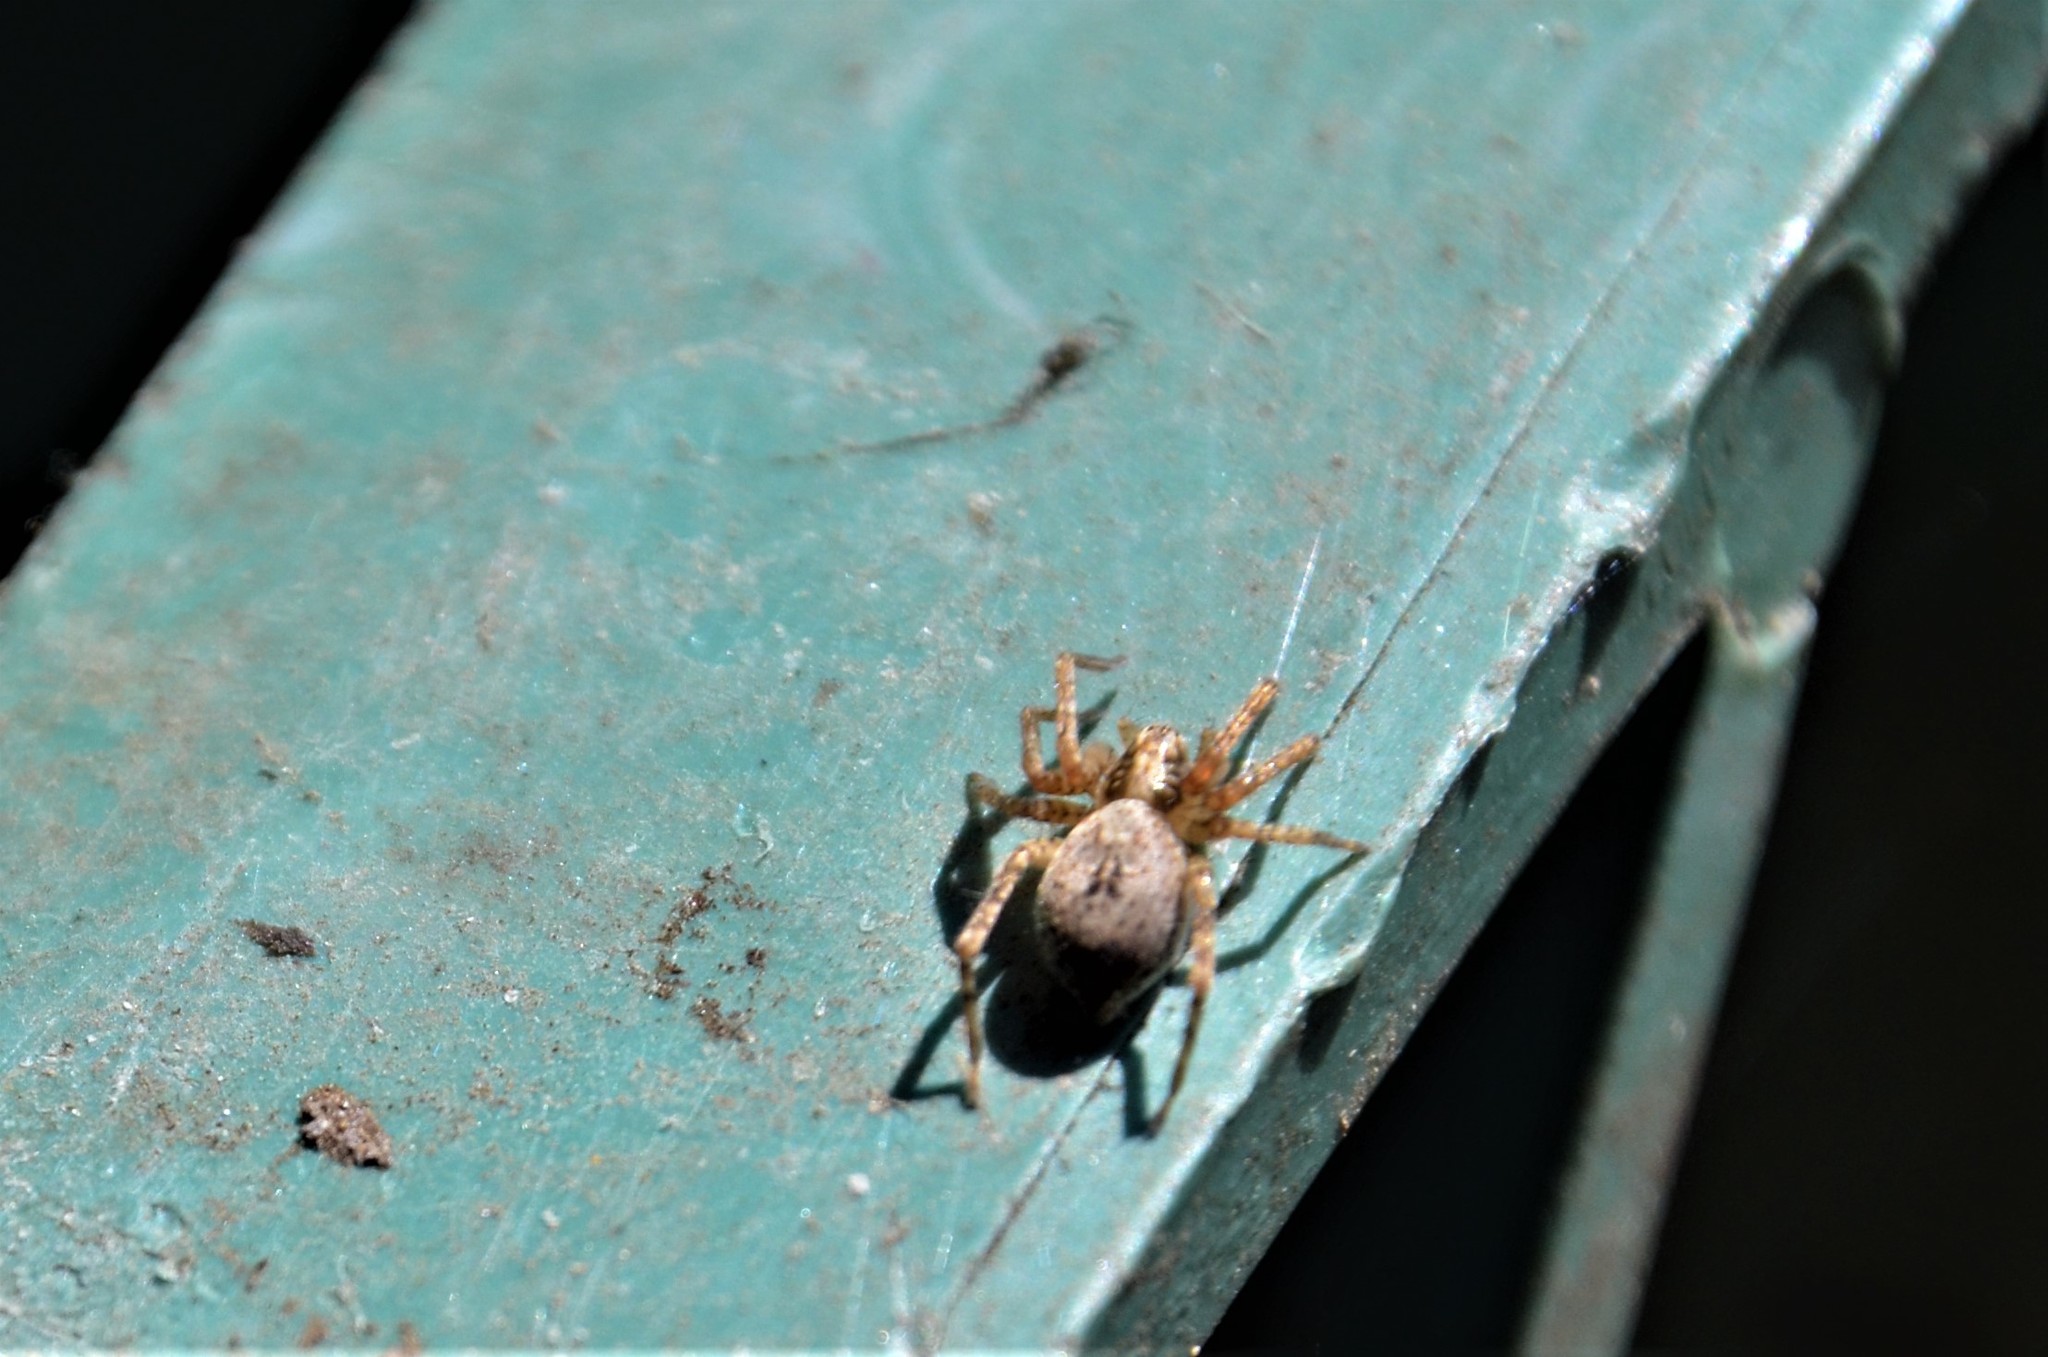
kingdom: Animalia
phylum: Arthropoda
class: Arachnida
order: Araneae
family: Anyphaenidae
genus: Anyphaena
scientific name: Anyphaena accentuata
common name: Buzzing spider
